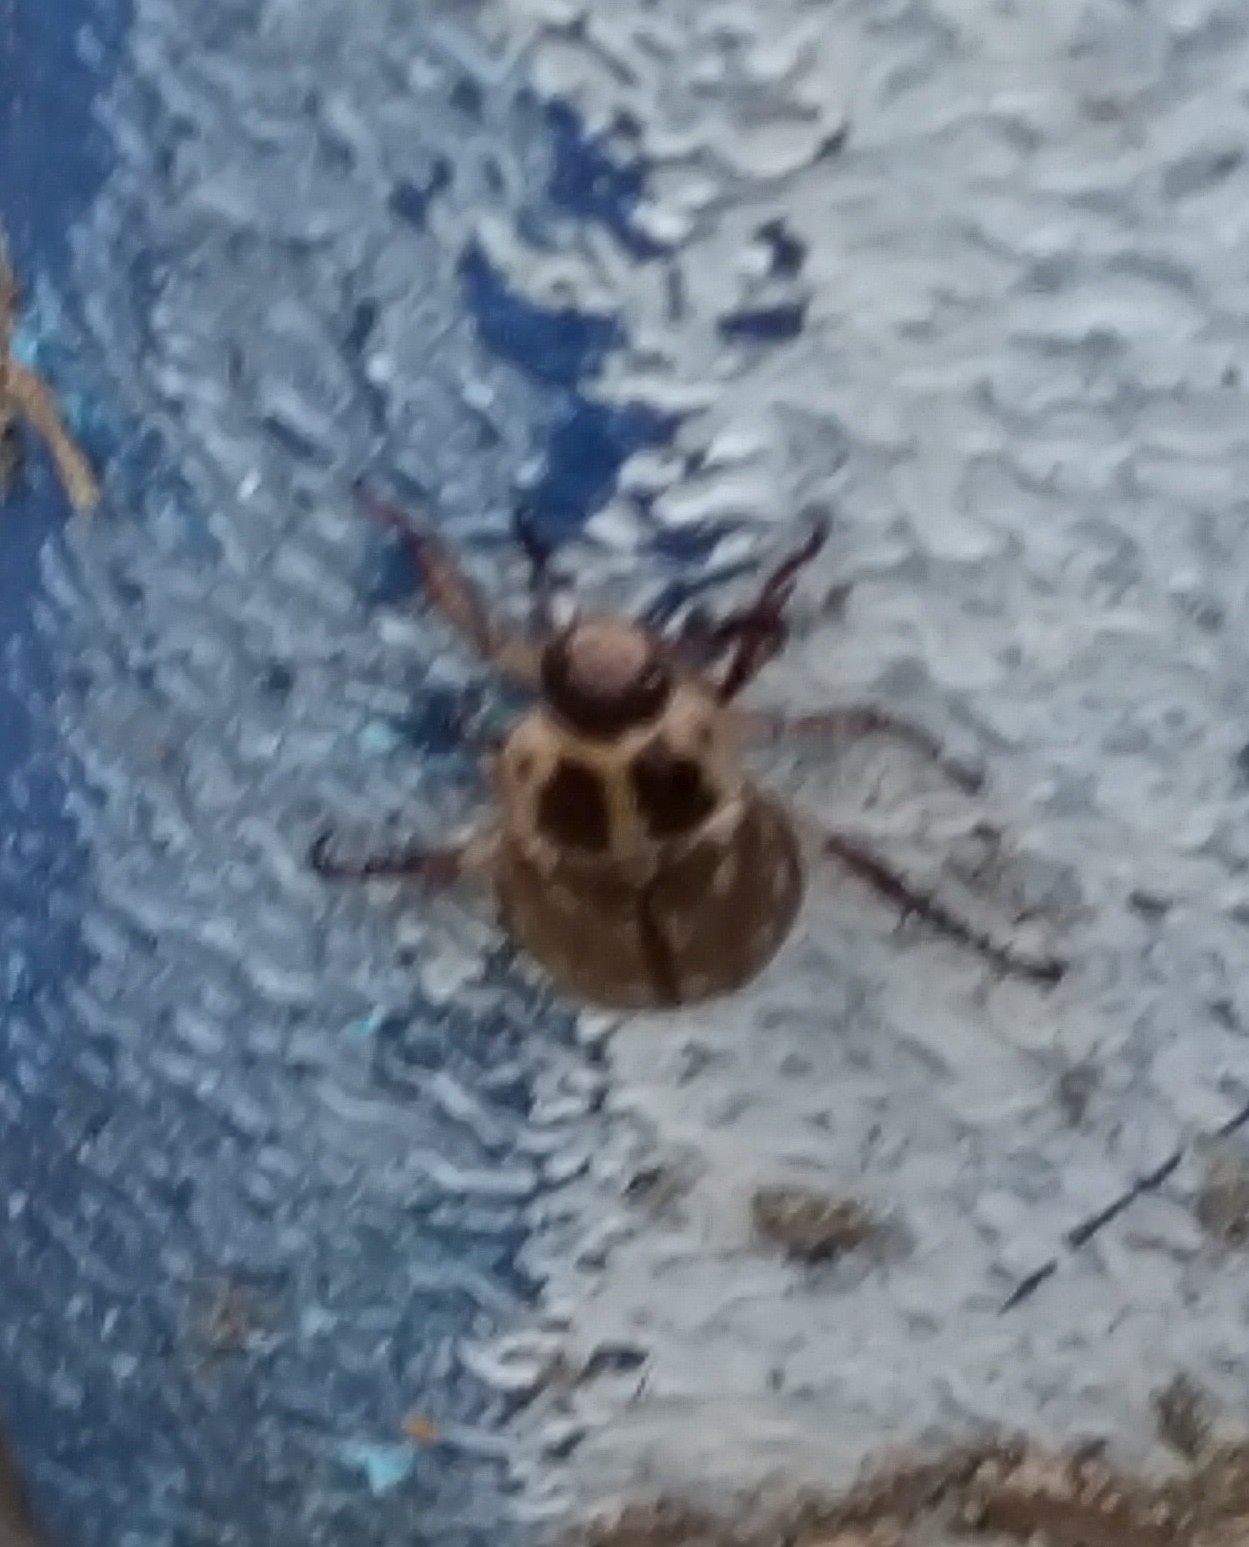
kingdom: Animalia
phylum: Arthropoda
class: Insecta
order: Coleoptera
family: Scarabaeidae
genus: Exomala
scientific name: Exomala orientalis
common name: Oriental beetle
